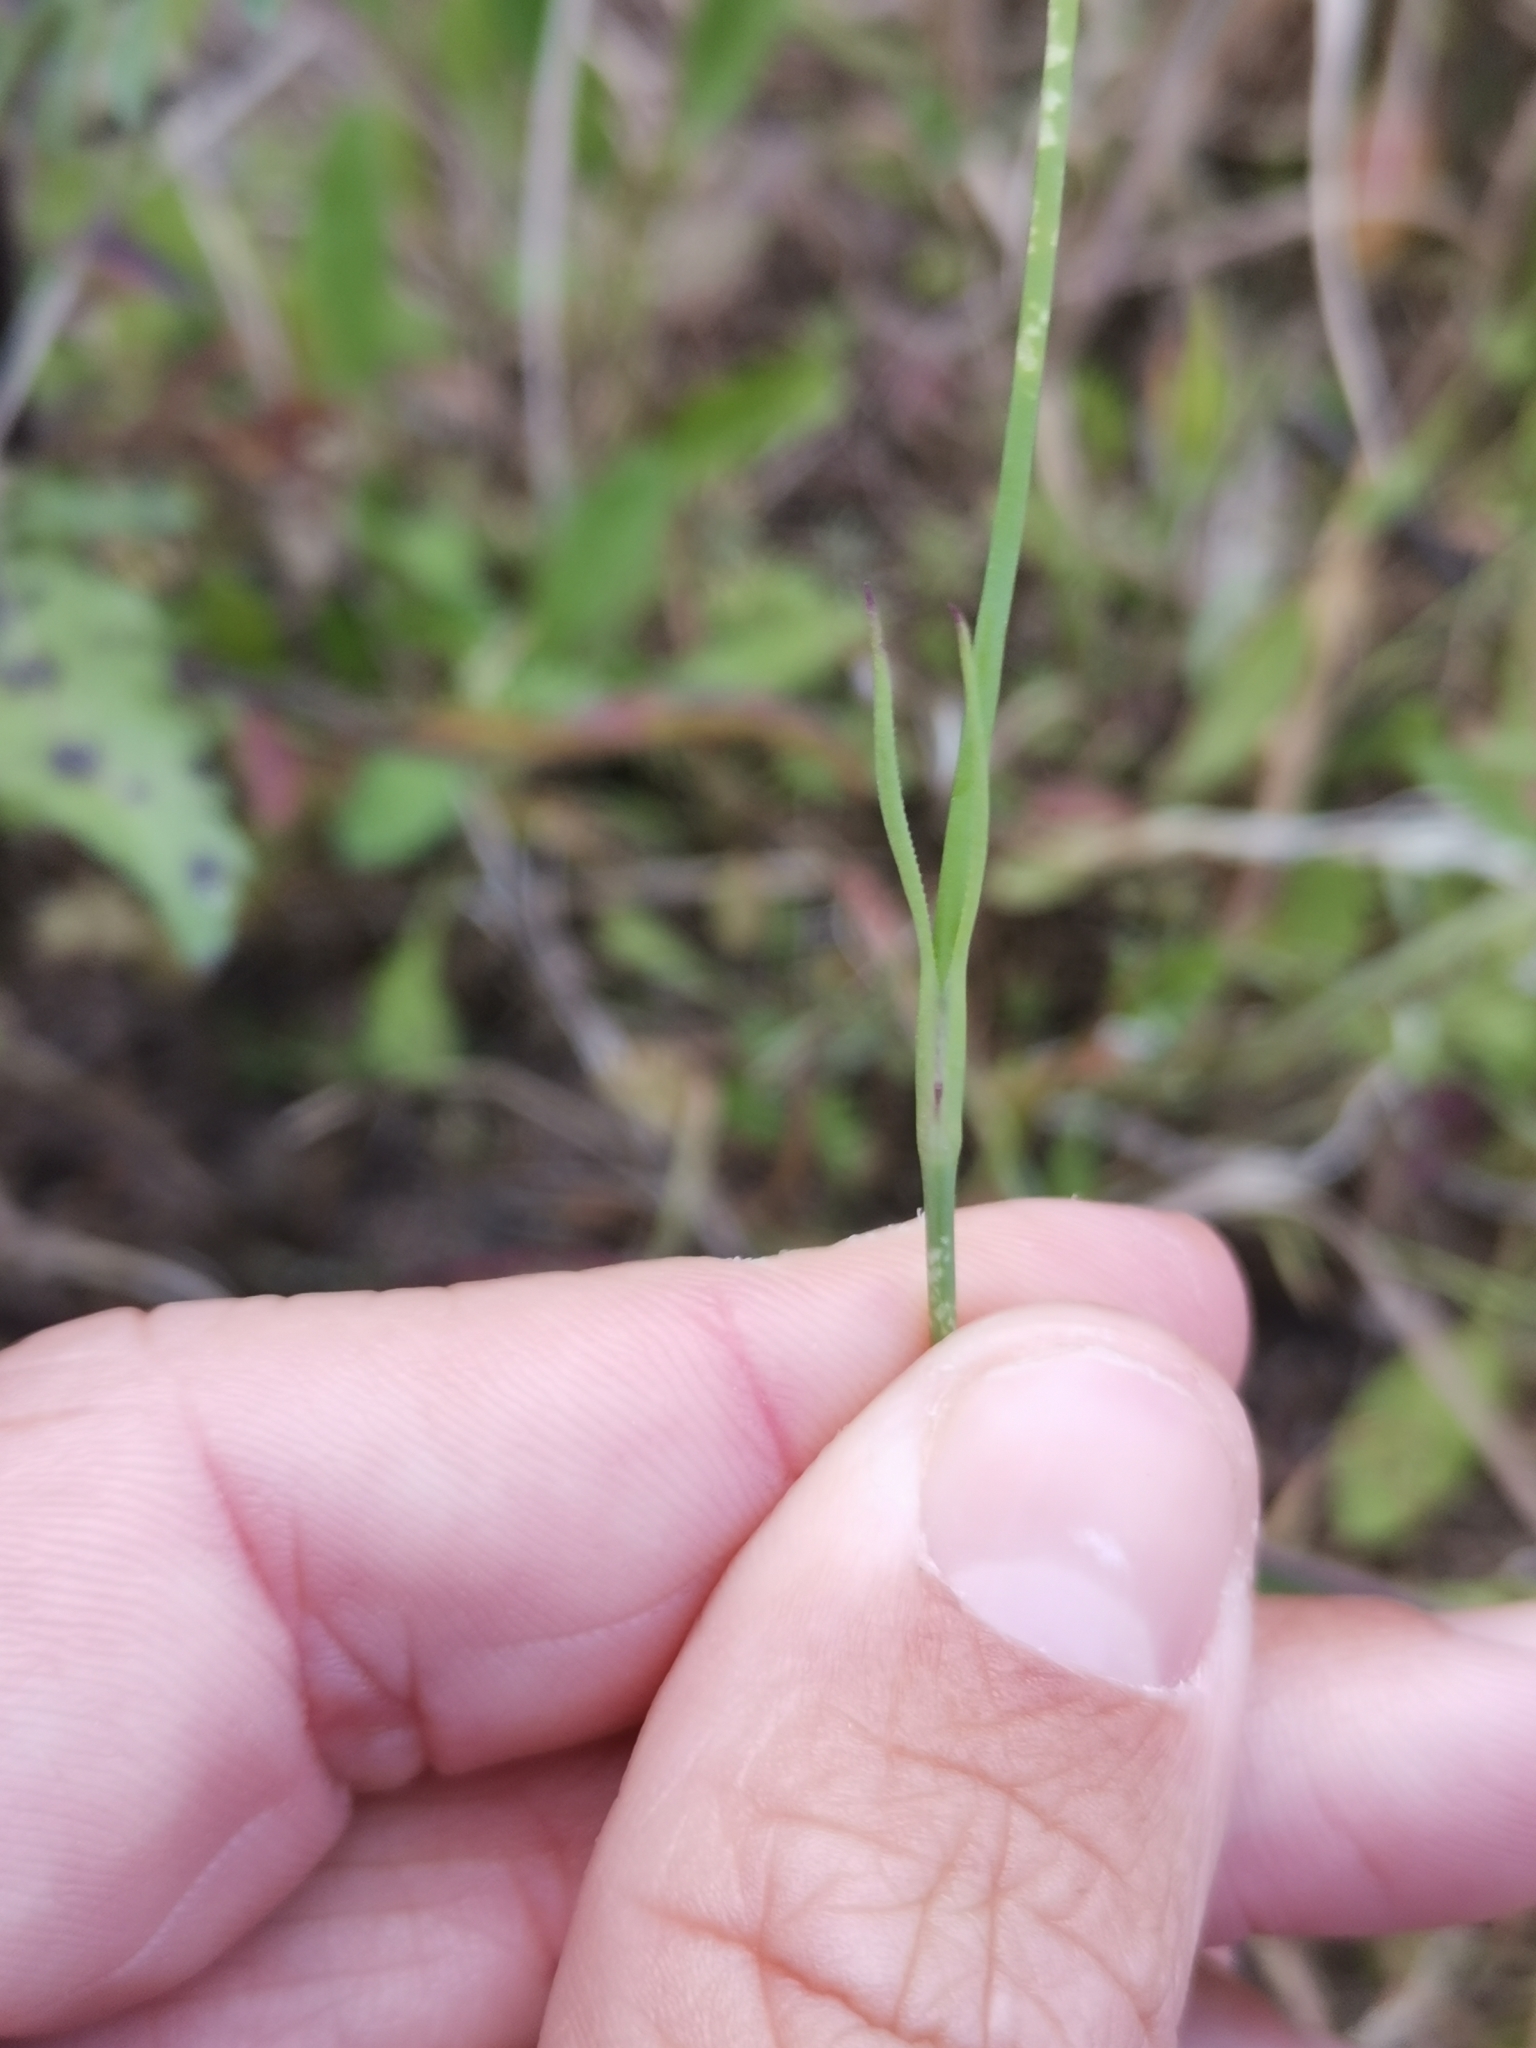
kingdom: Plantae
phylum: Tracheophyta
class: Magnoliopsida
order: Caryophyllales
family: Caryophyllaceae
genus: Petrorhagia
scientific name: Petrorhagia nanteuilii
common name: Proliferous pink
